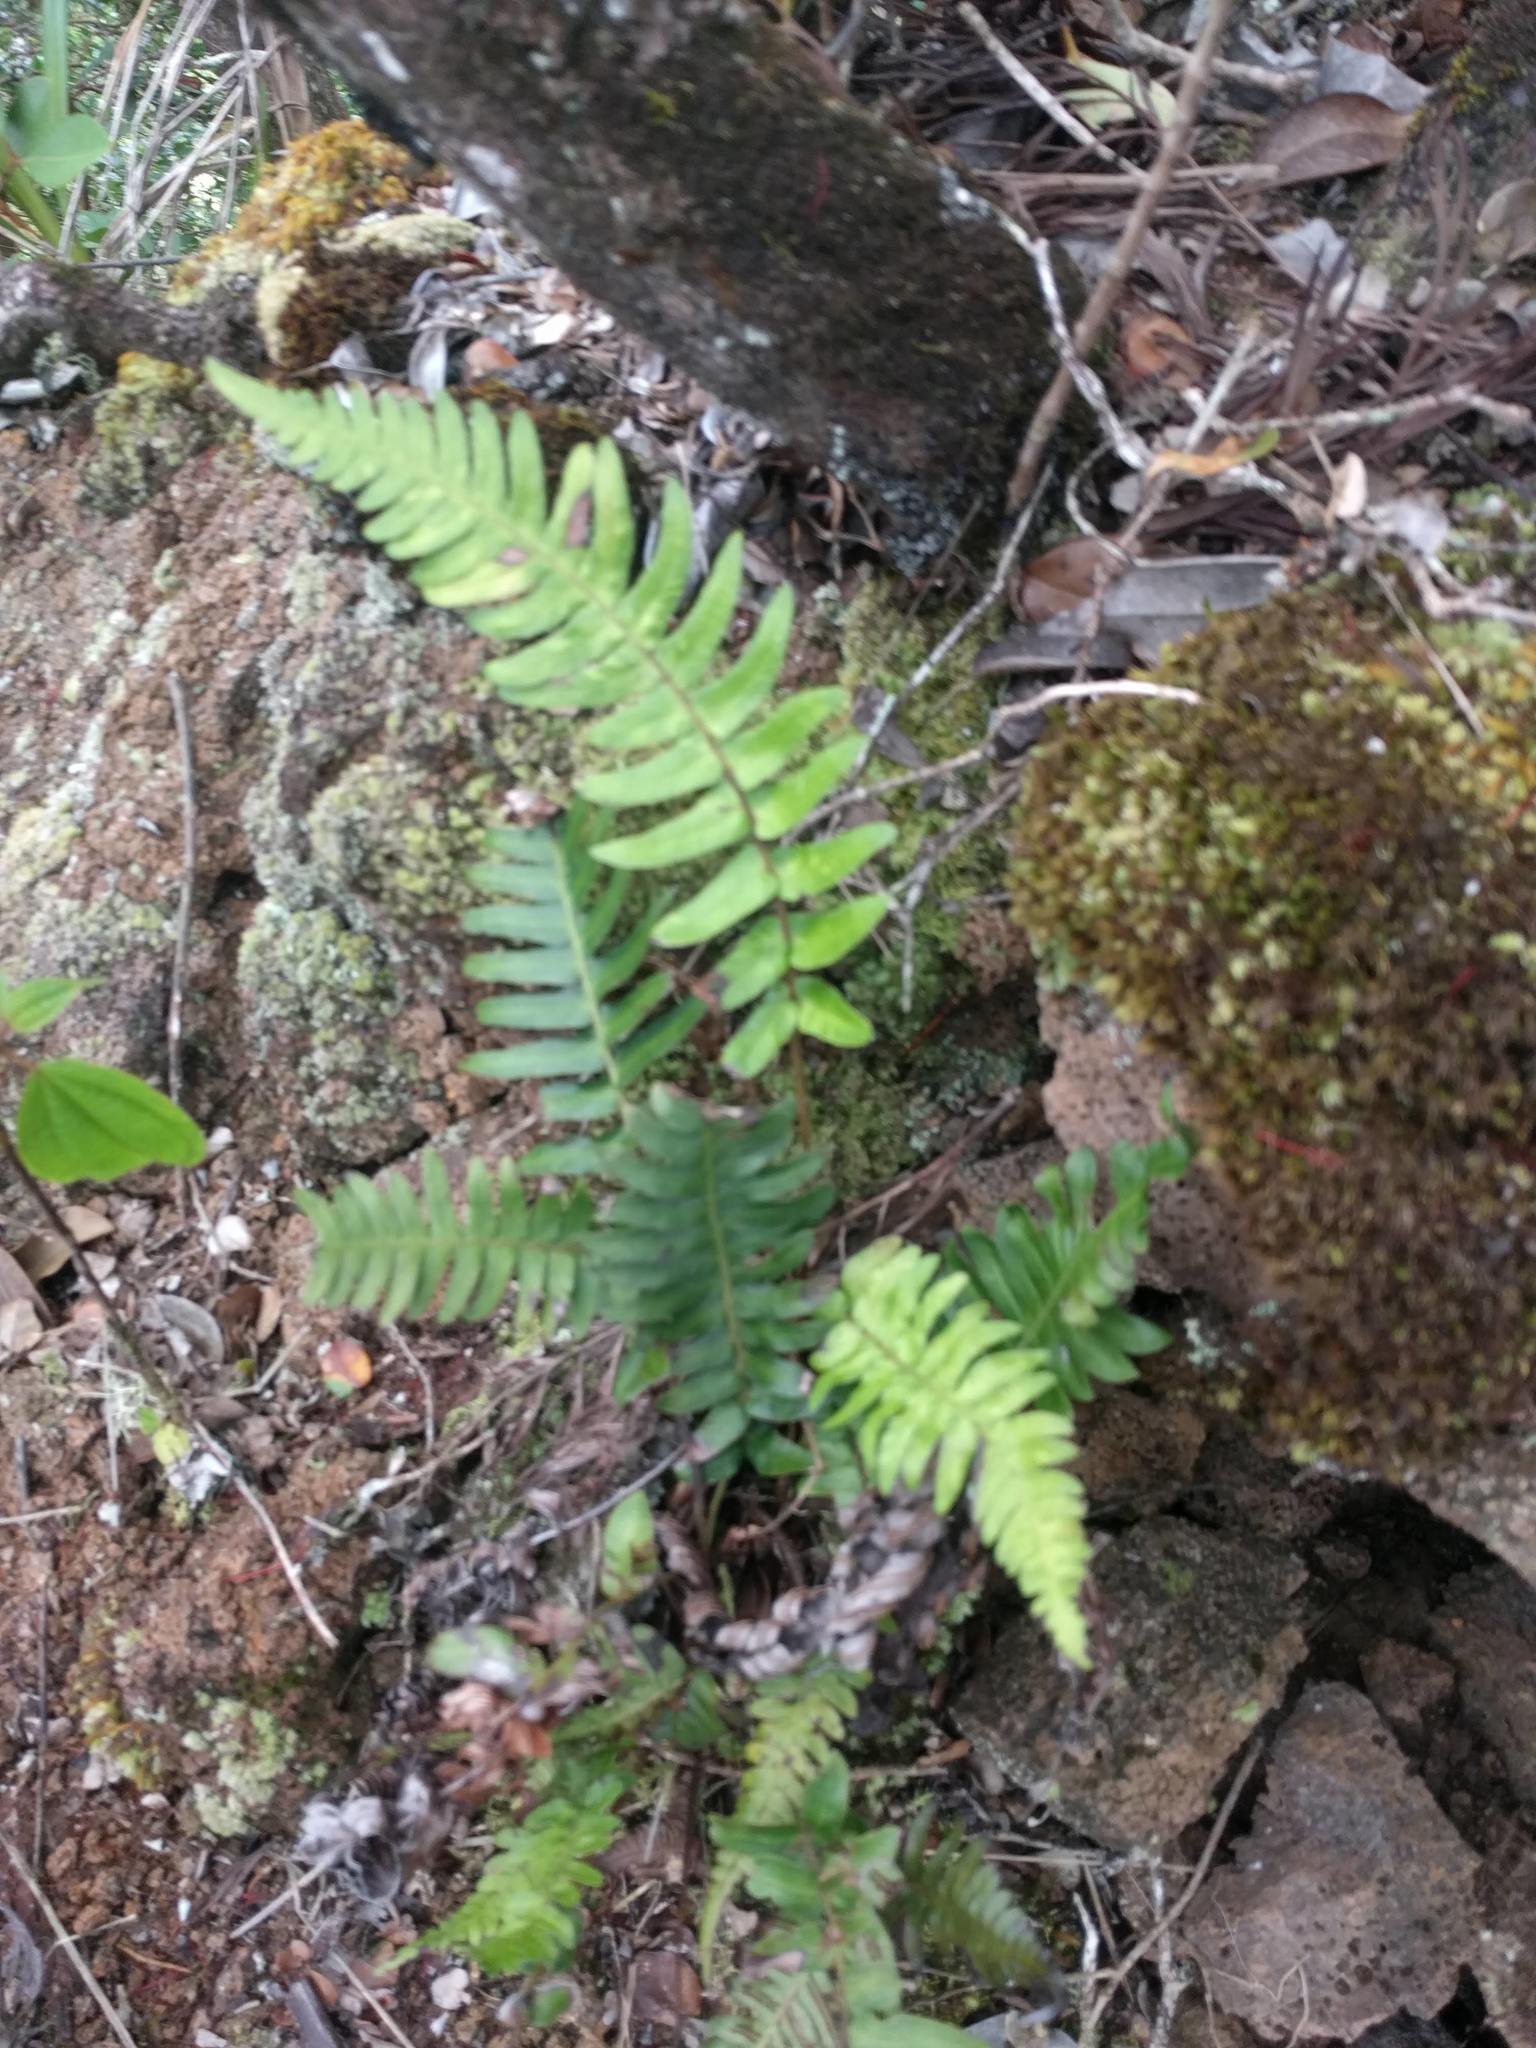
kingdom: Plantae
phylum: Tracheophyta
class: Polypodiopsida
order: Polypodiales
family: Blechnaceae
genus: Blechnum
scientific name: Blechnum appendiculatum
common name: Palm fern
